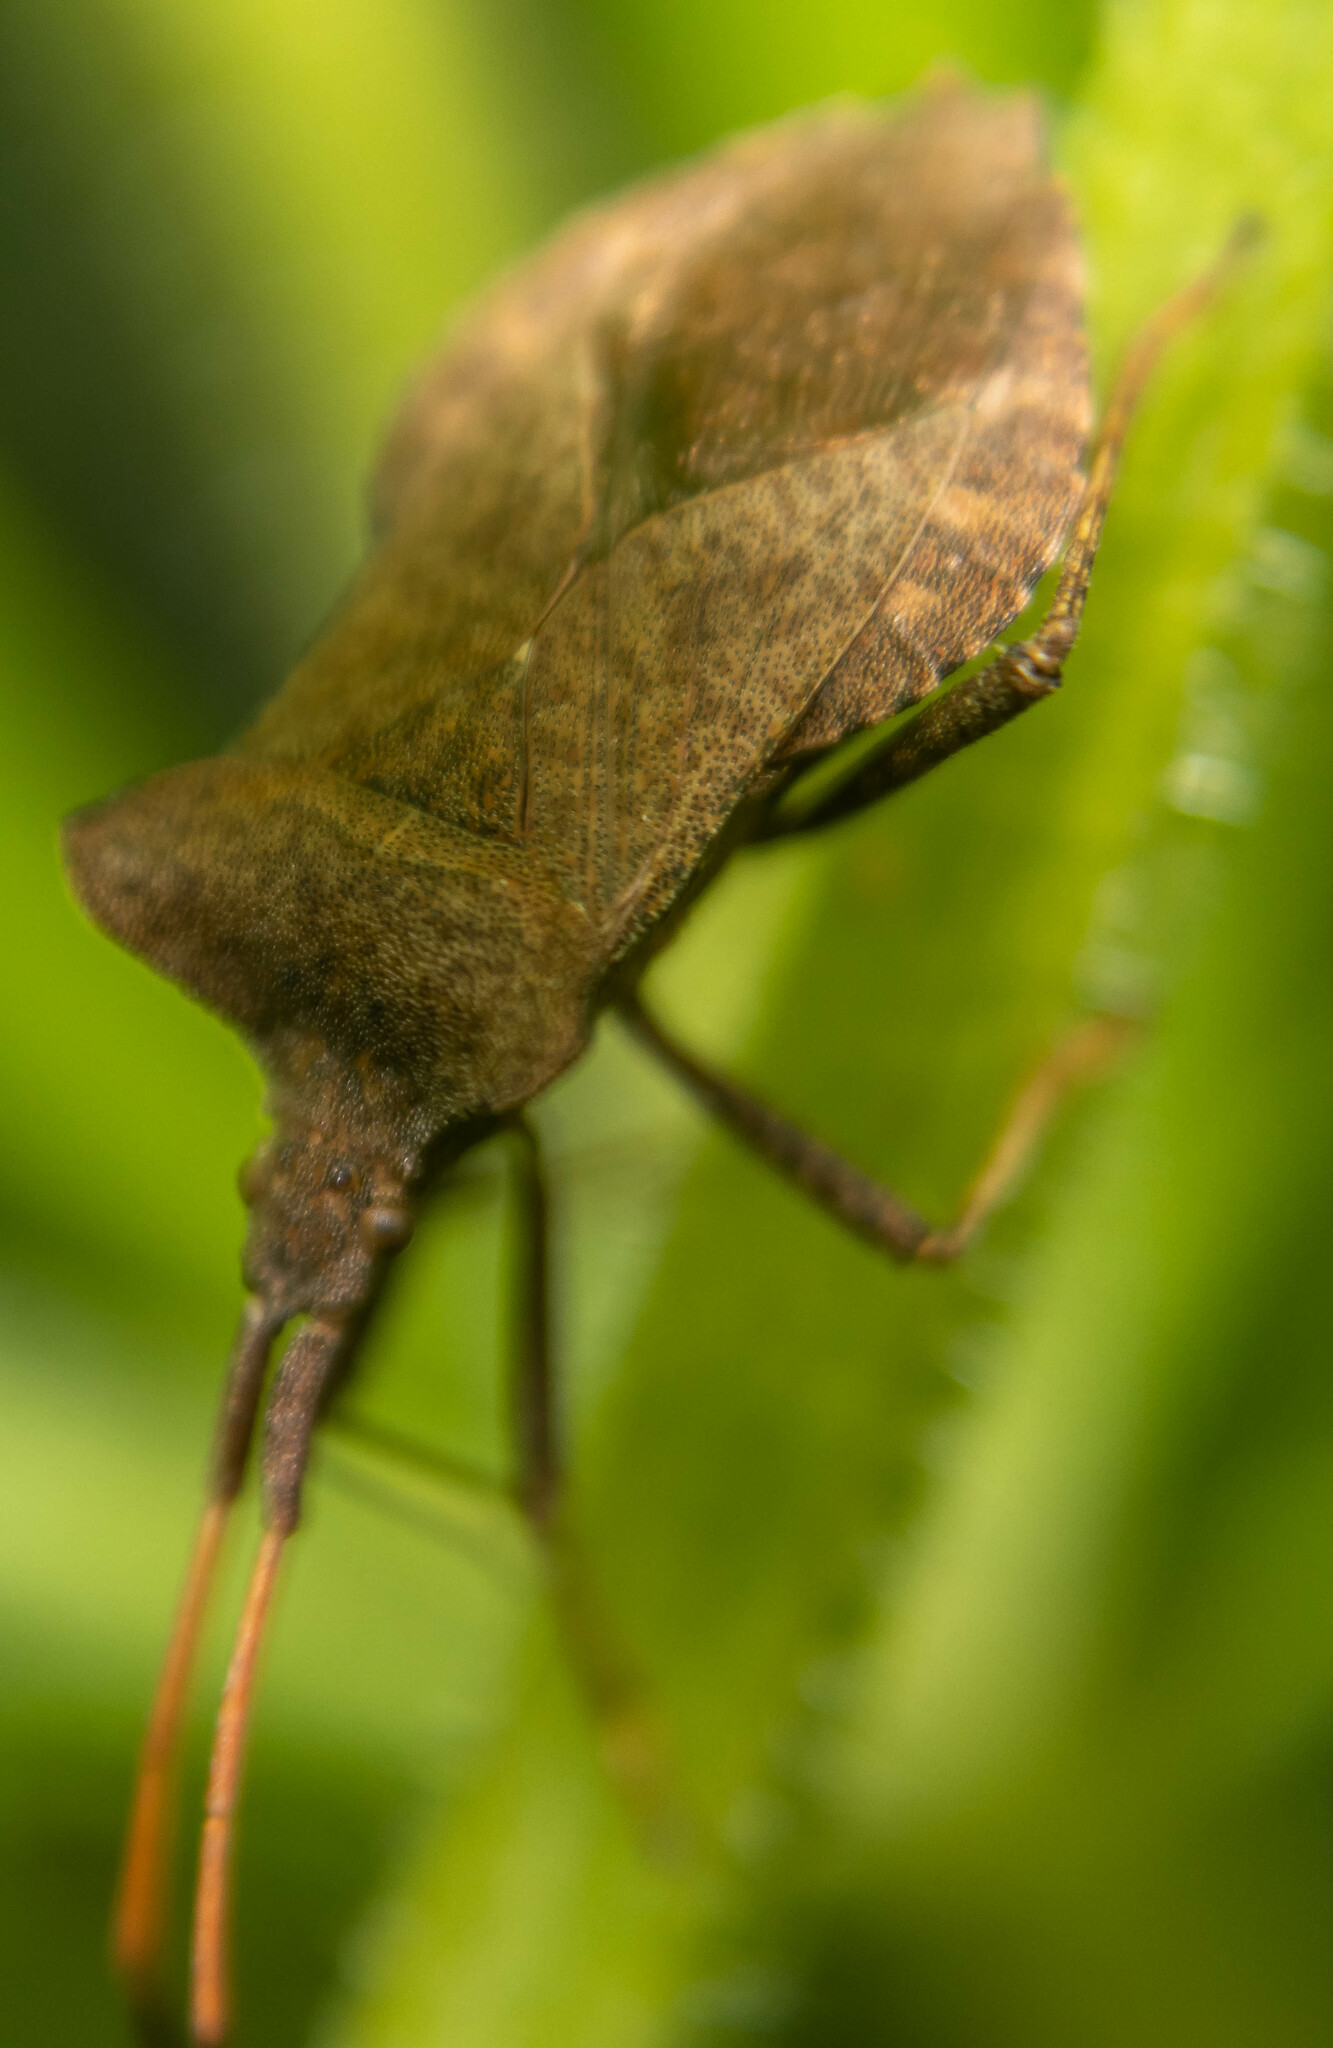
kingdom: Animalia
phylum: Arthropoda
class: Insecta
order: Hemiptera
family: Coreidae
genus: Coreus
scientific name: Coreus marginatus
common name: Dock bug
